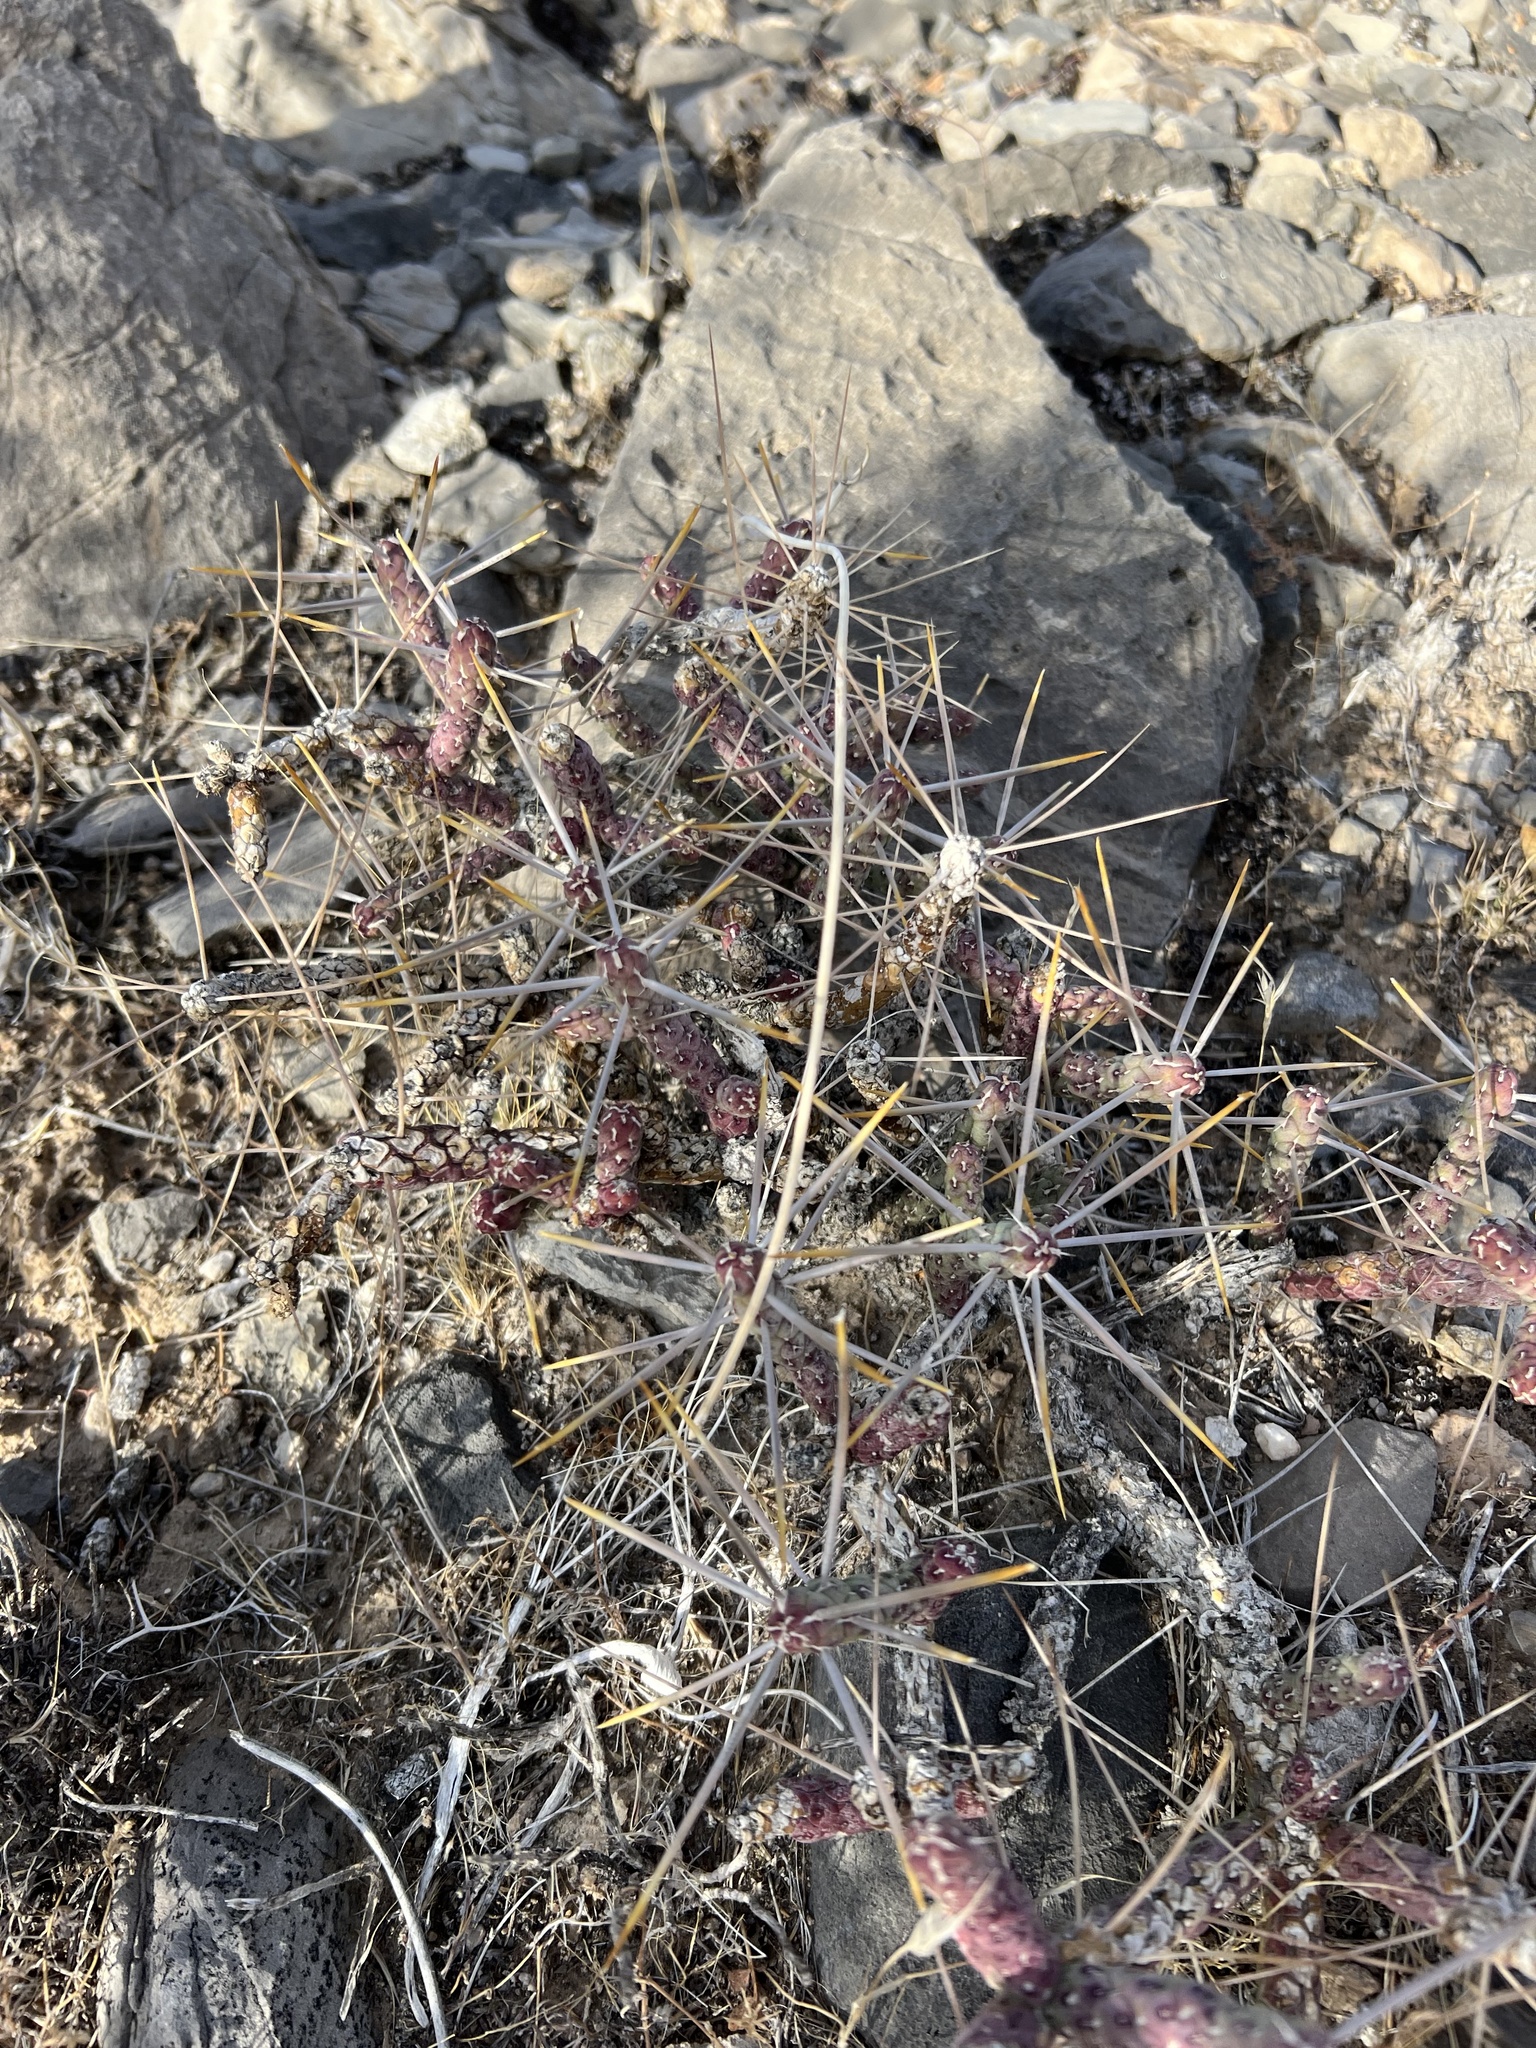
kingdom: Plantae
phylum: Tracheophyta
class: Magnoliopsida
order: Caryophyllales
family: Cactaceae
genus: Cylindropuntia
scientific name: Cylindropuntia ramosissima
